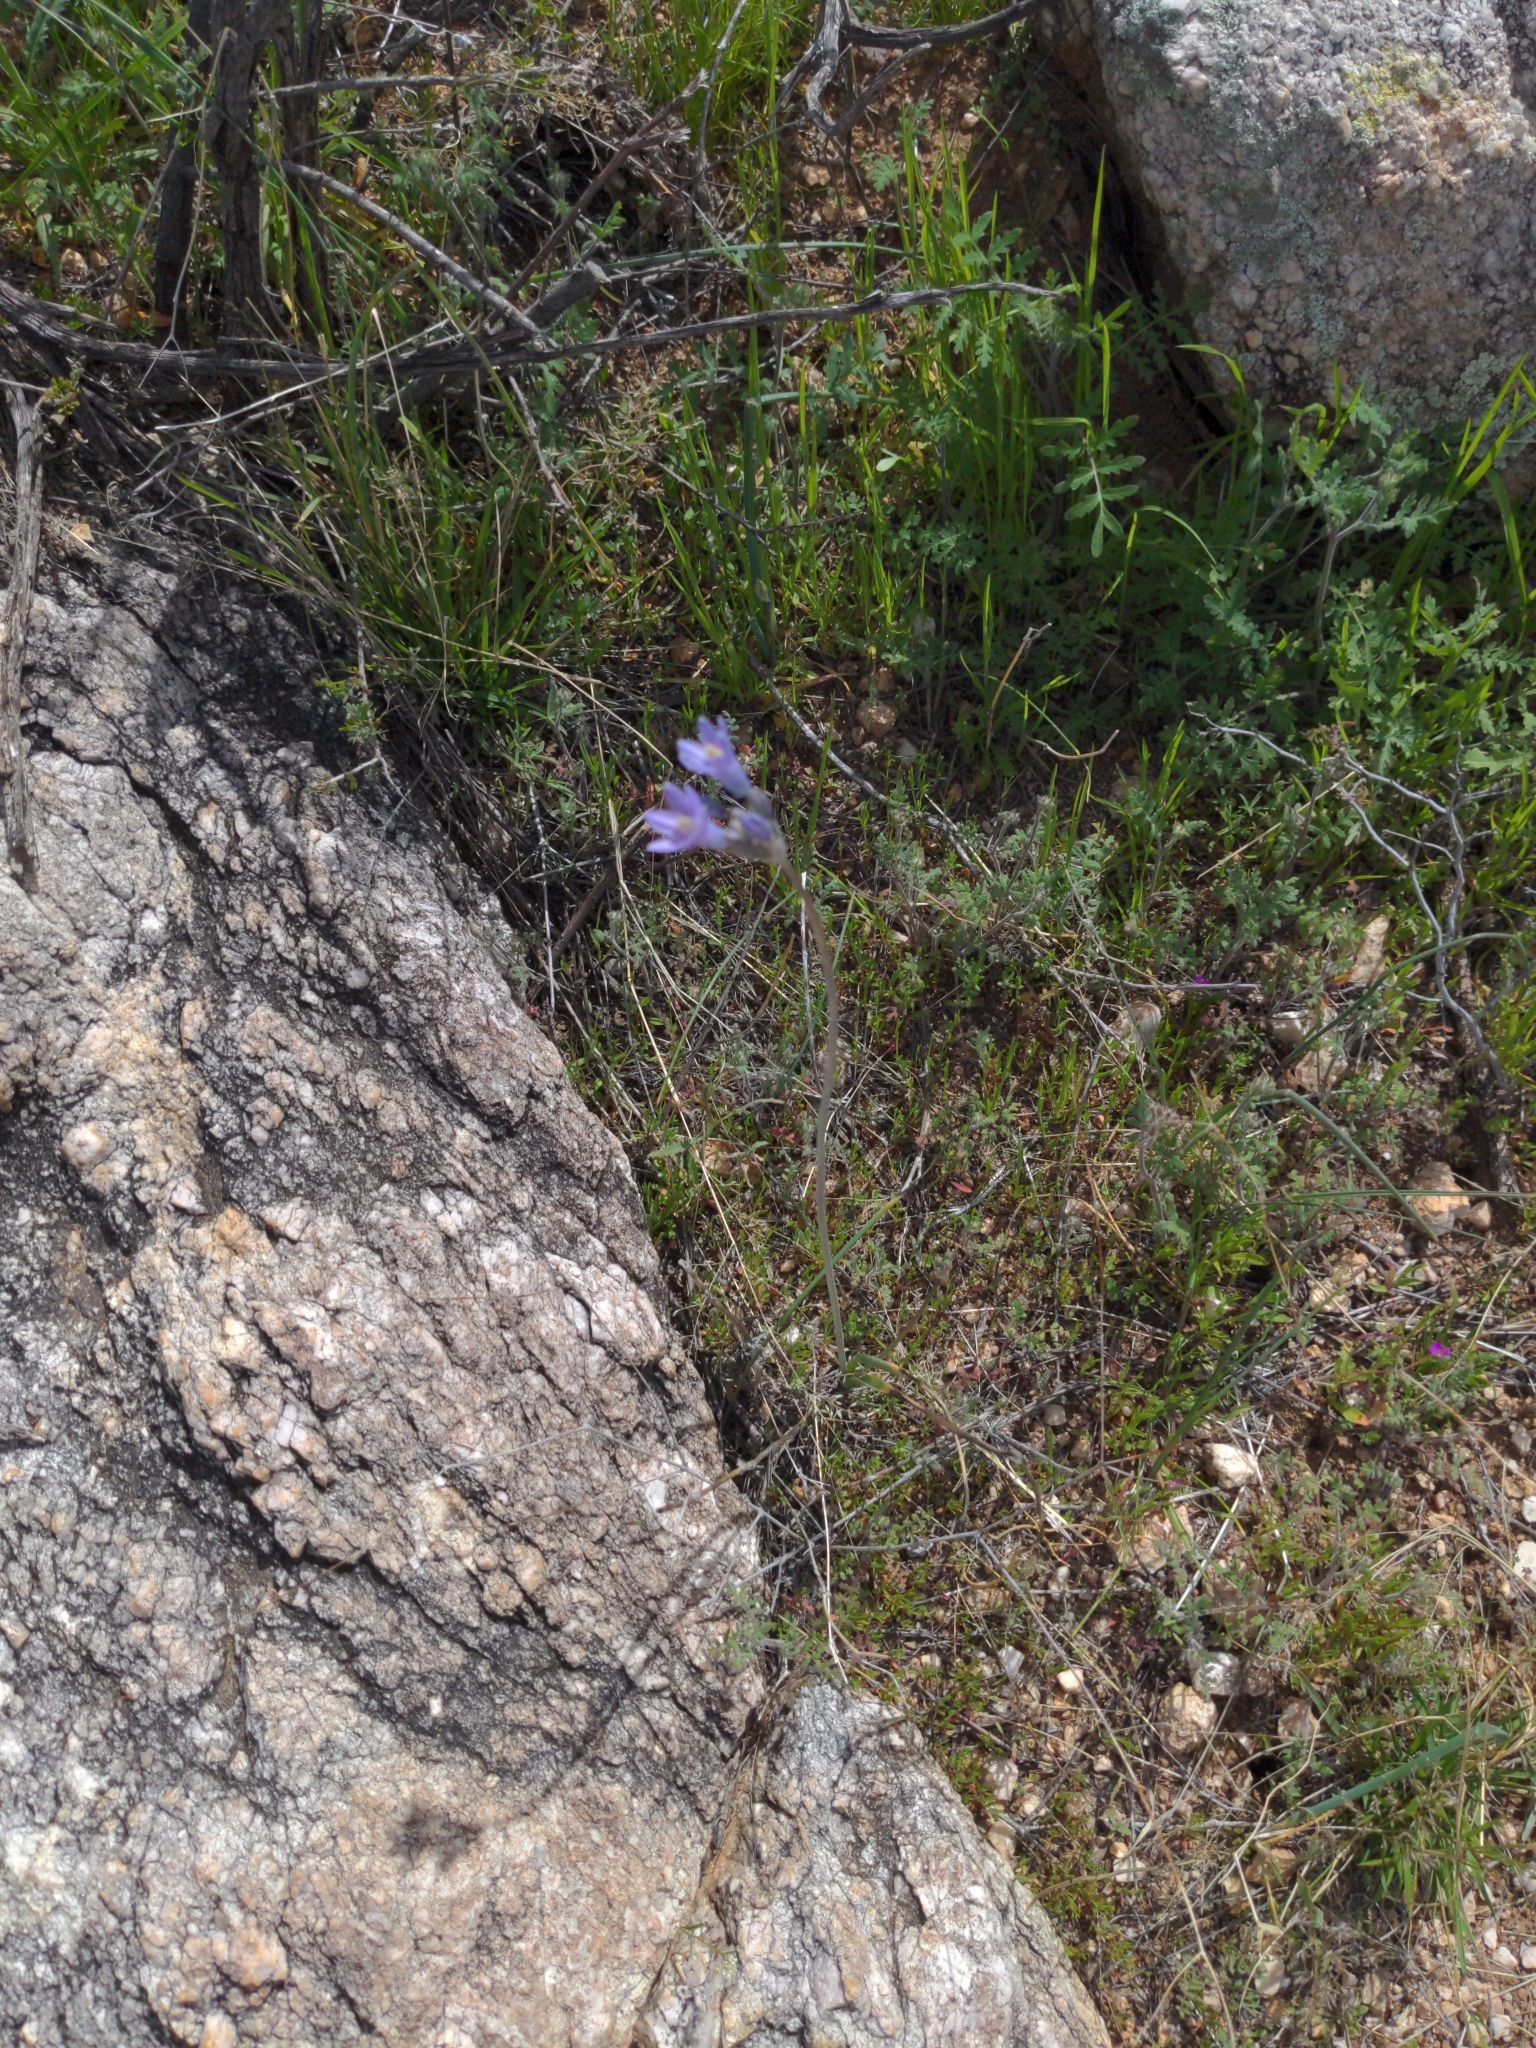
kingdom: Plantae
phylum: Tracheophyta
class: Liliopsida
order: Asparagales
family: Asparagaceae
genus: Dipterostemon
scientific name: Dipterostemon capitatus
